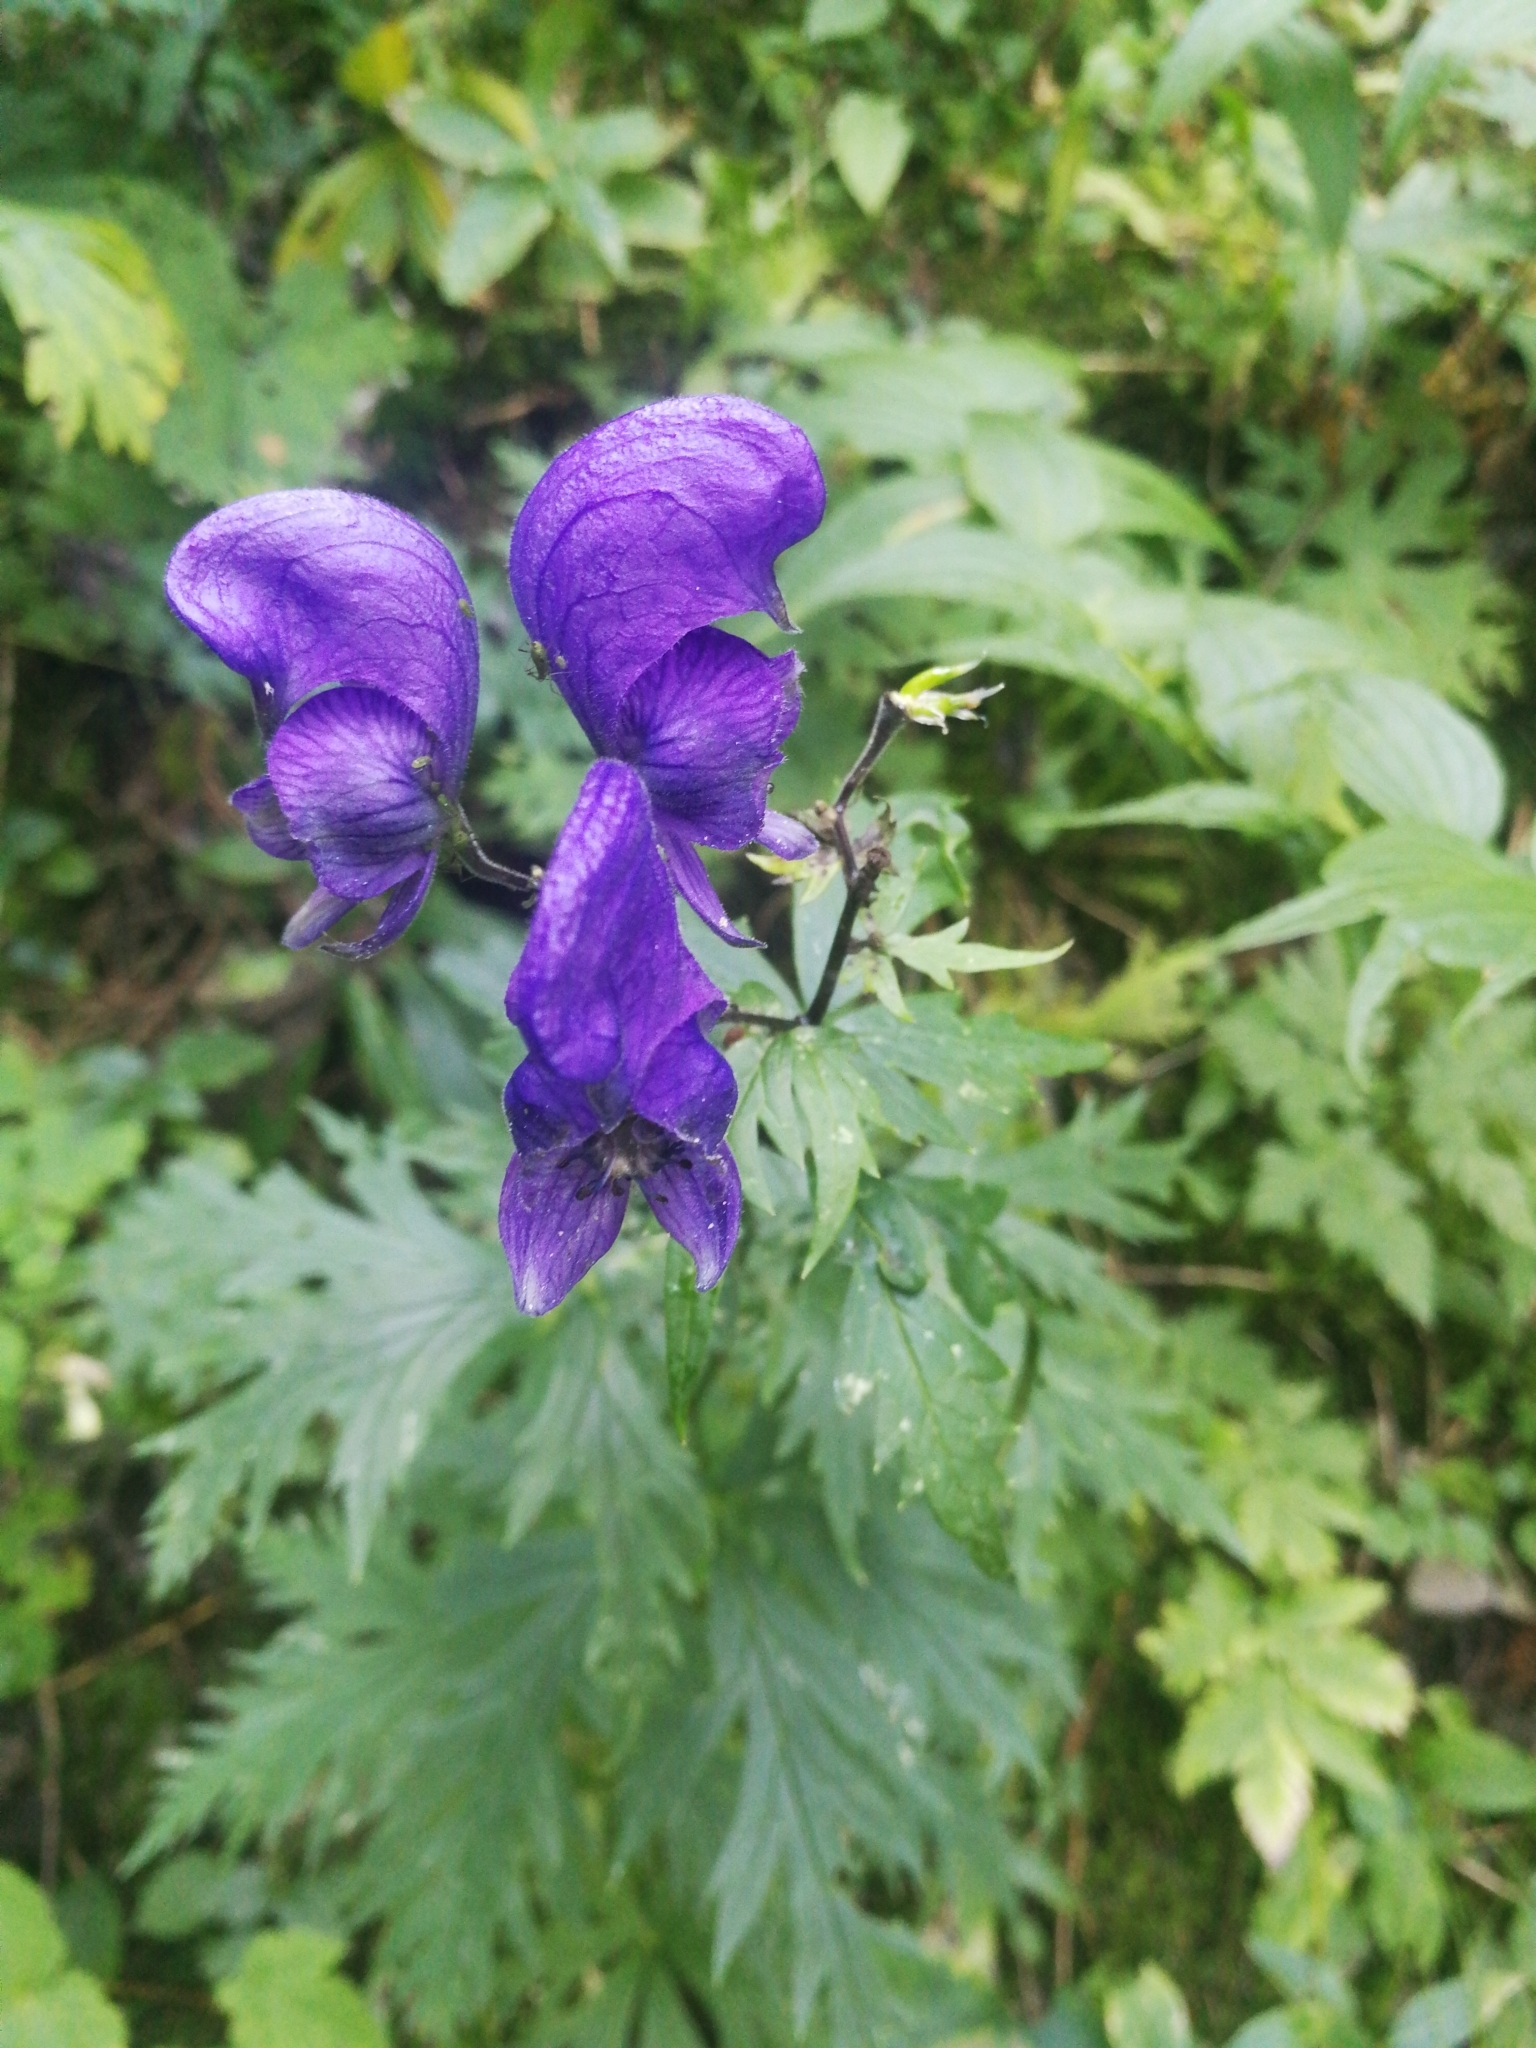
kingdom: Plantae
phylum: Tracheophyta
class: Magnoliopsida
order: Ranunculales
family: Ranunculaceae
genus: Aconitum
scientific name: Aconitum napellus
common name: Garden monkshood
